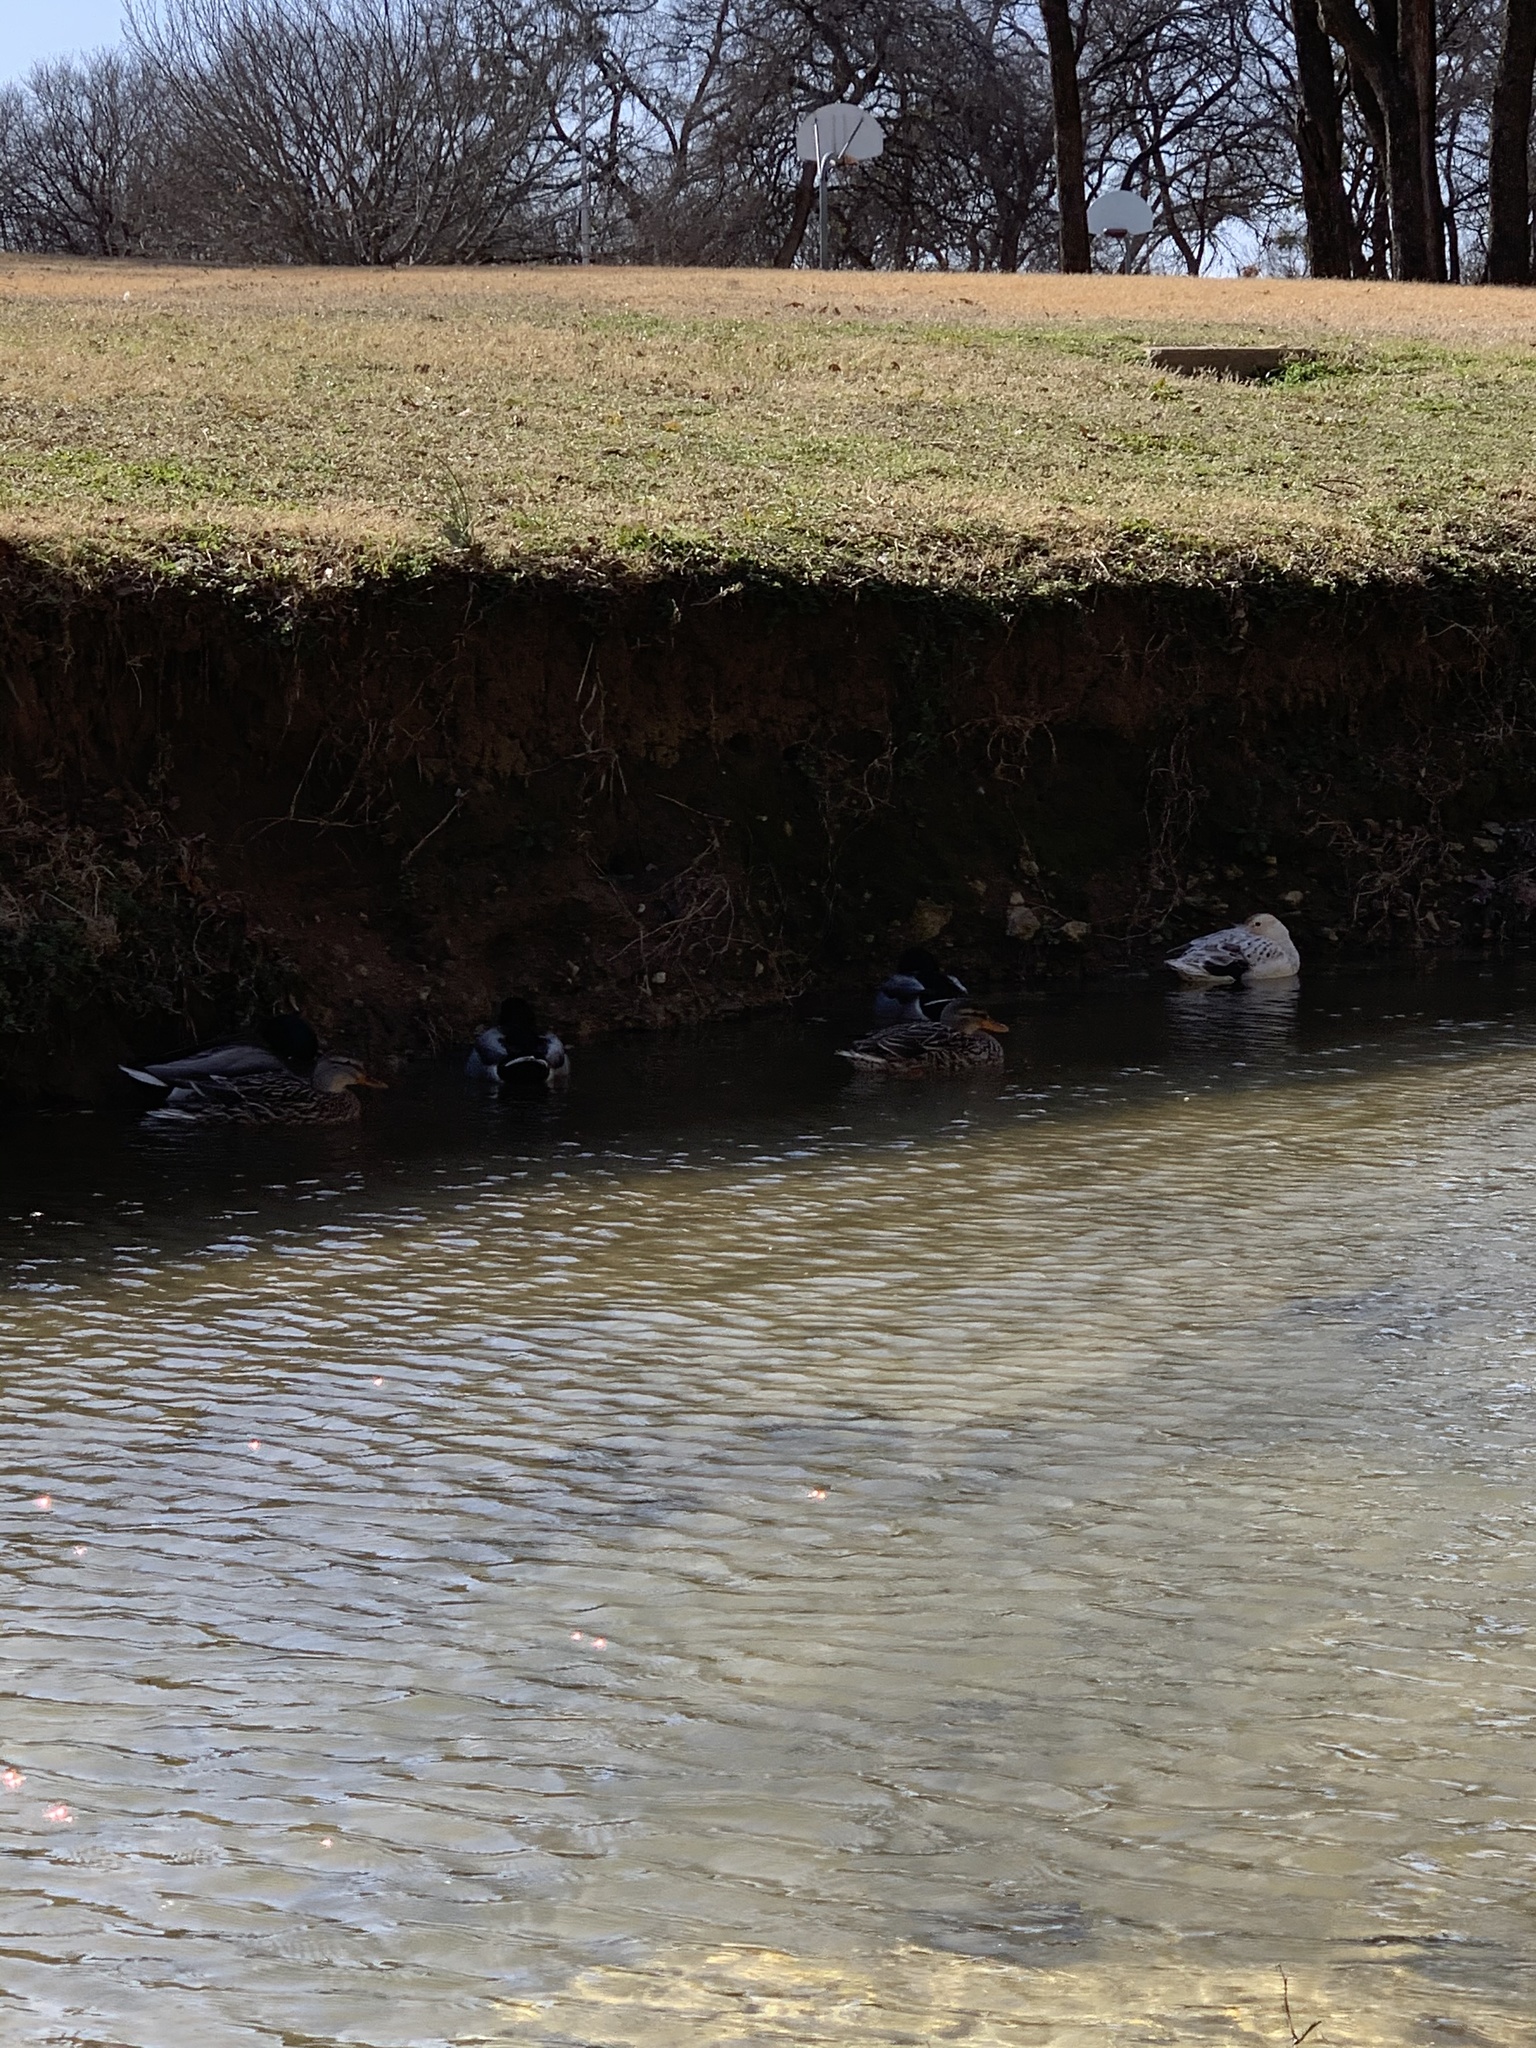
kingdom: Animalia
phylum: Chordata
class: Aves
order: Anseriformes
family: Anatidae
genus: Anas
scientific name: Anas platyrhynchos
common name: Mallard
